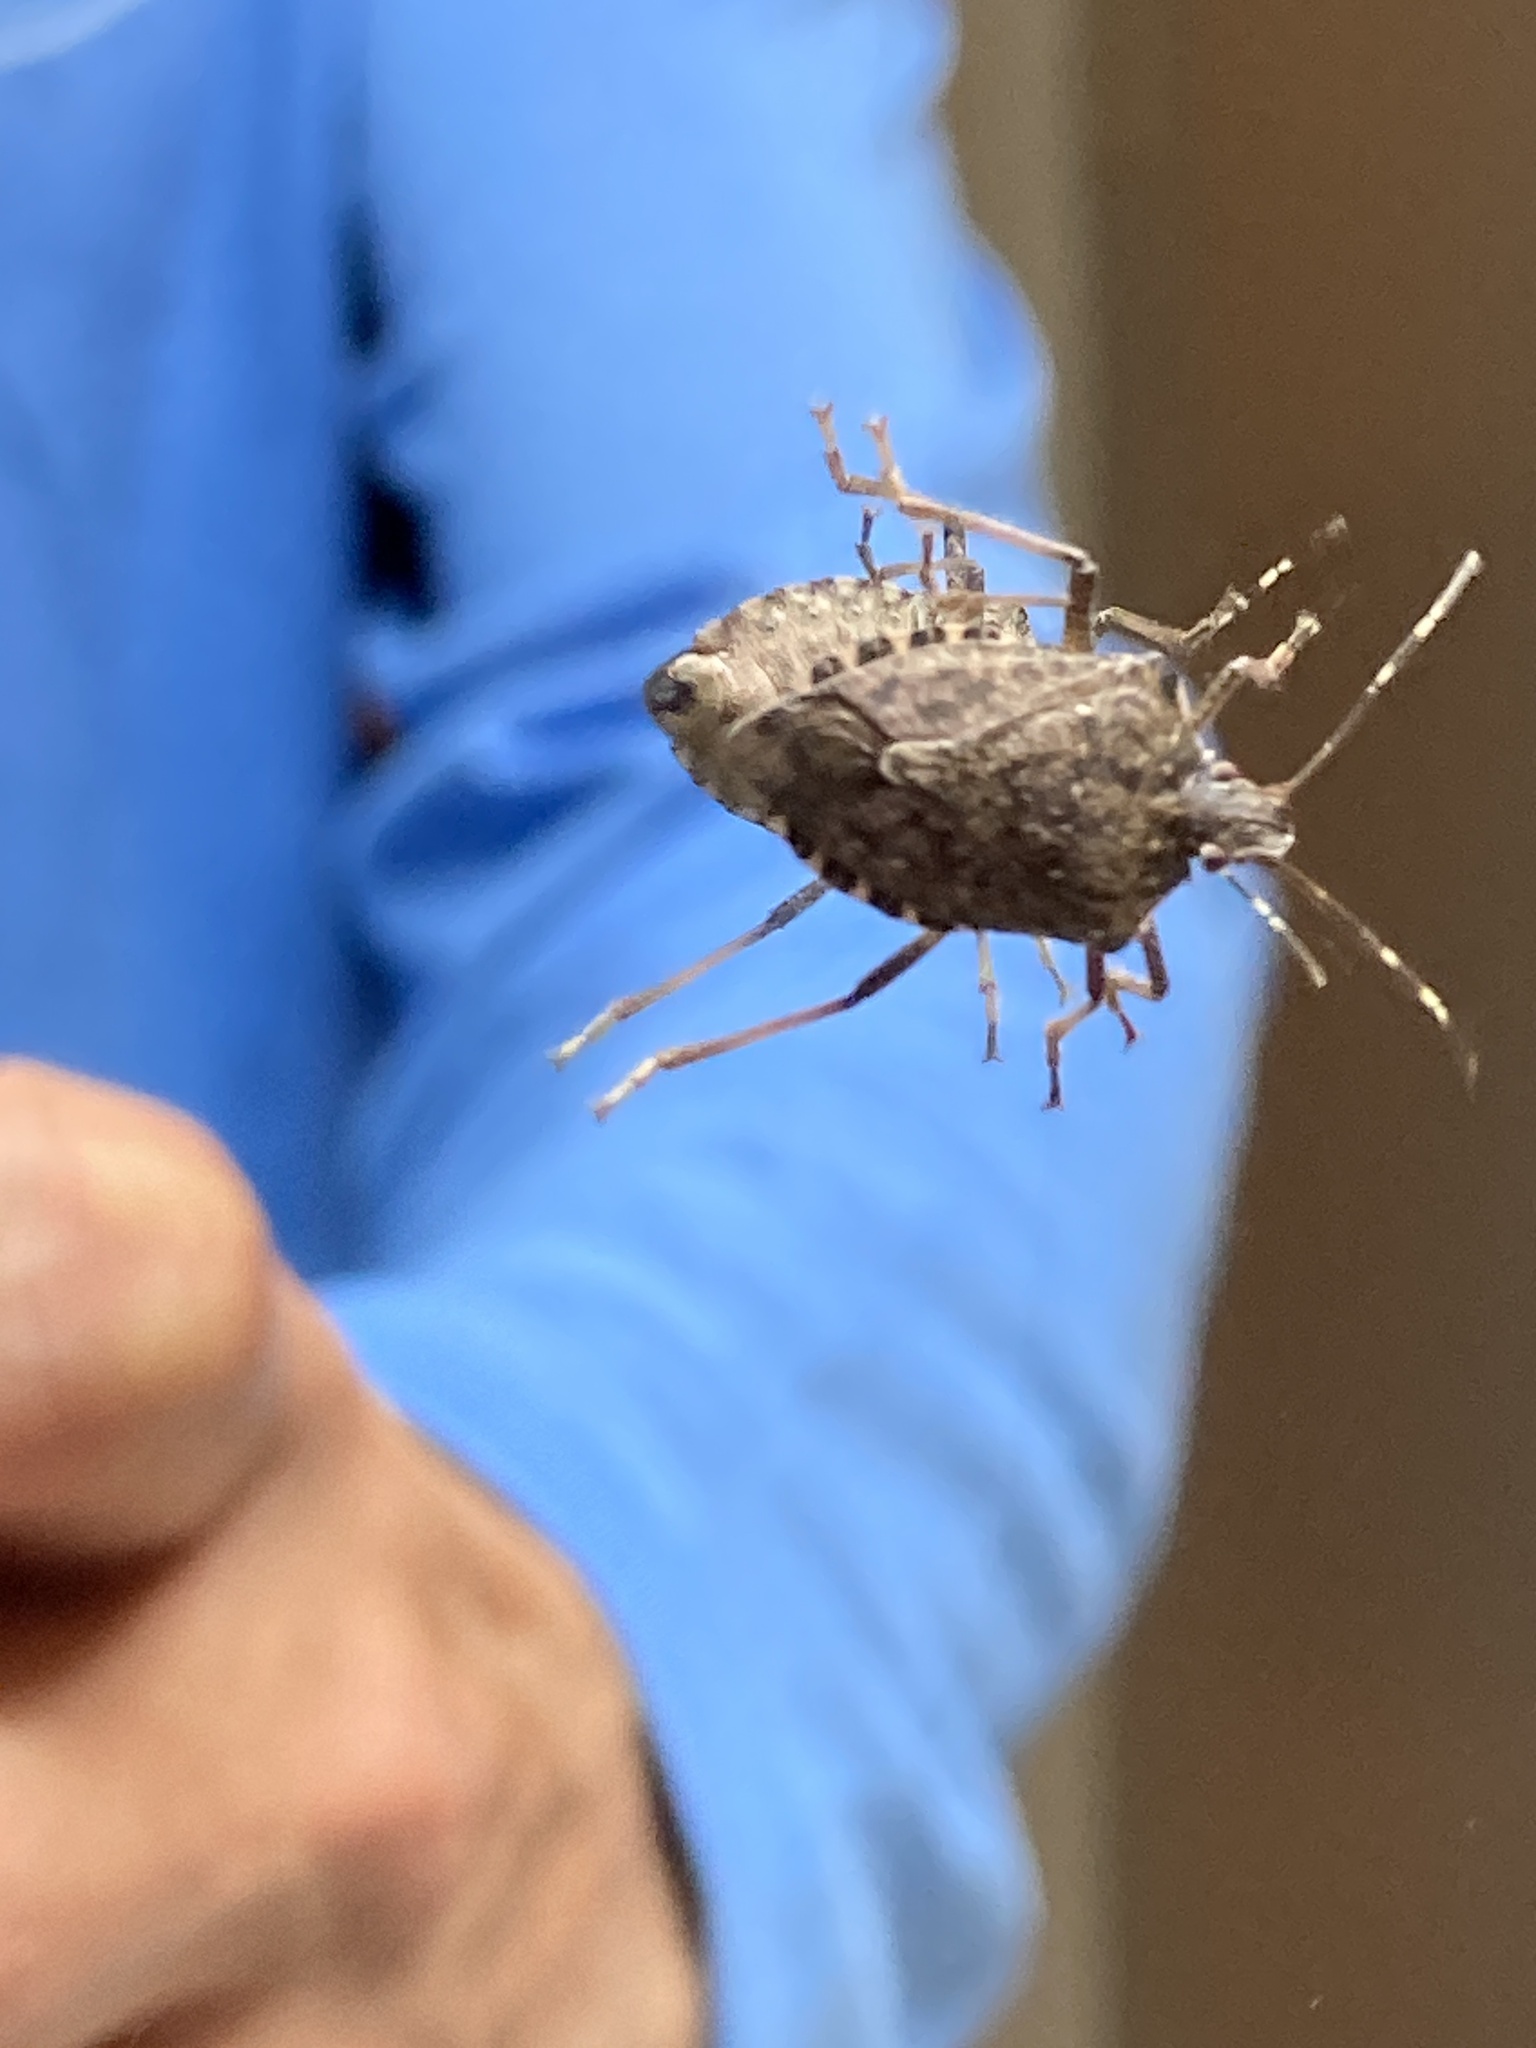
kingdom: Animalia
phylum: Arthropoda
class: Insecta
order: Hemiptera
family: Pentatomidae
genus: Halyomorpha
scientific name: Halyomorpha halys
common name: Brown marmorated stink bug
